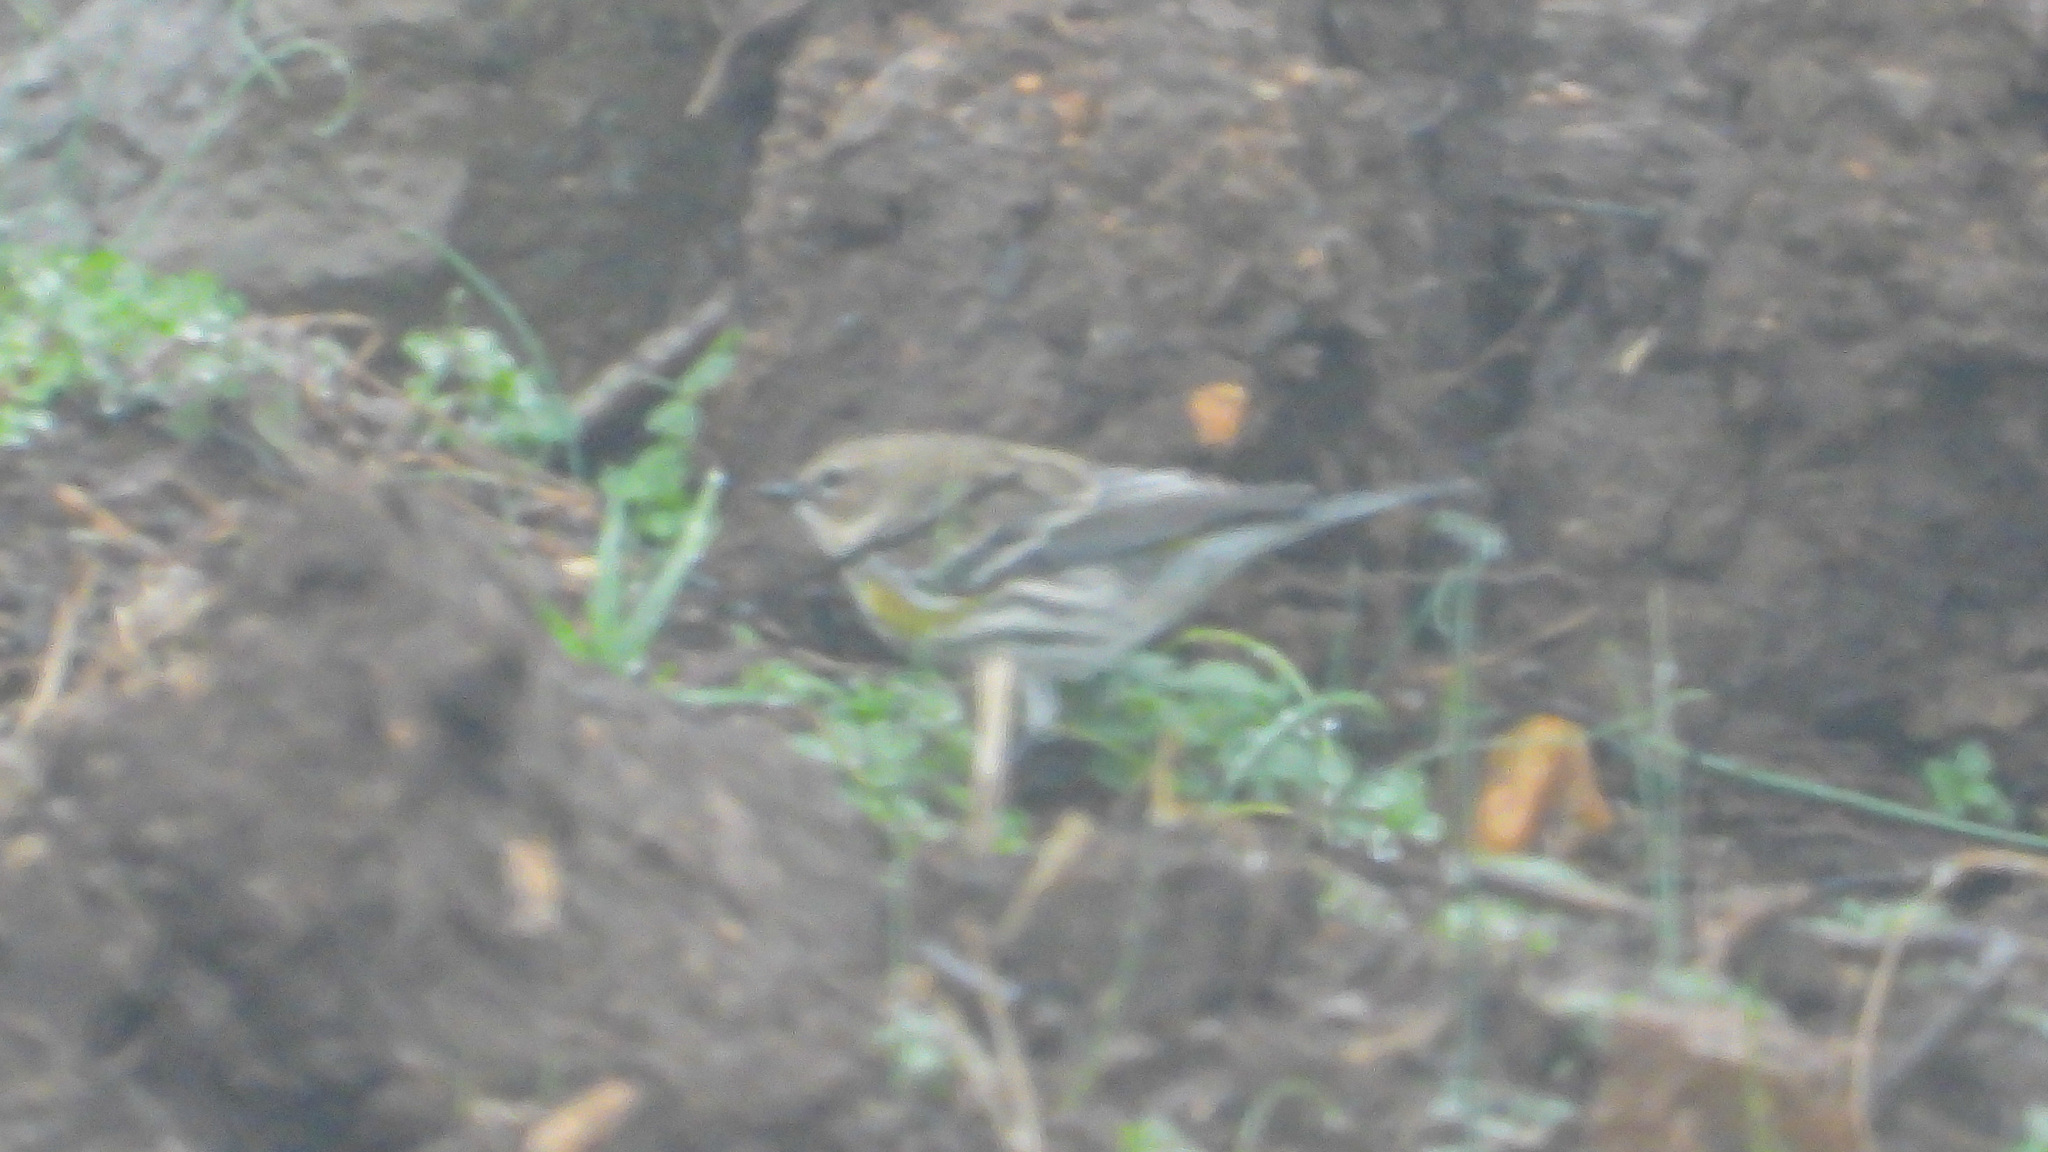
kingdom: Animalia
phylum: Chordata
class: Aves
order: Passeriformes
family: Parulidae
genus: Setophaga
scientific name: Setophaga coronata
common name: Myrtle warbler
